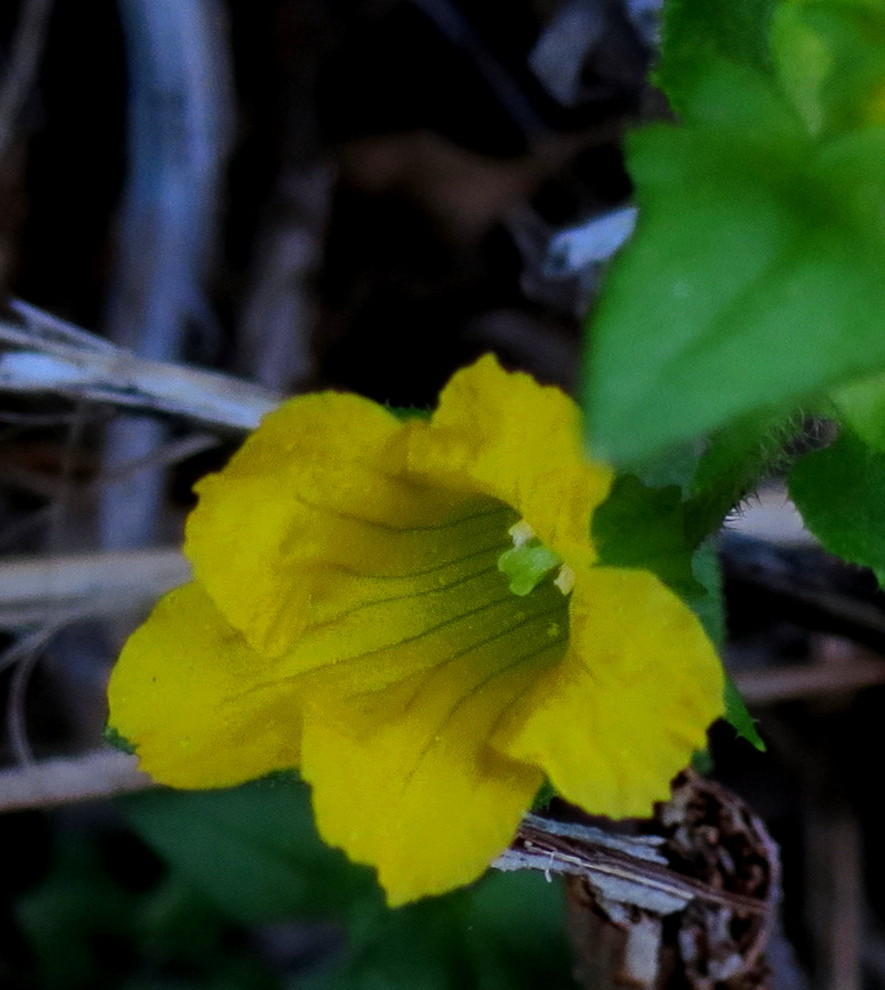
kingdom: Plantae
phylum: Tracheophyta
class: Magnoliopsida
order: Lamiales
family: Orobanchaceae
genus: Alectra
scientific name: Alectra sessiliflora
